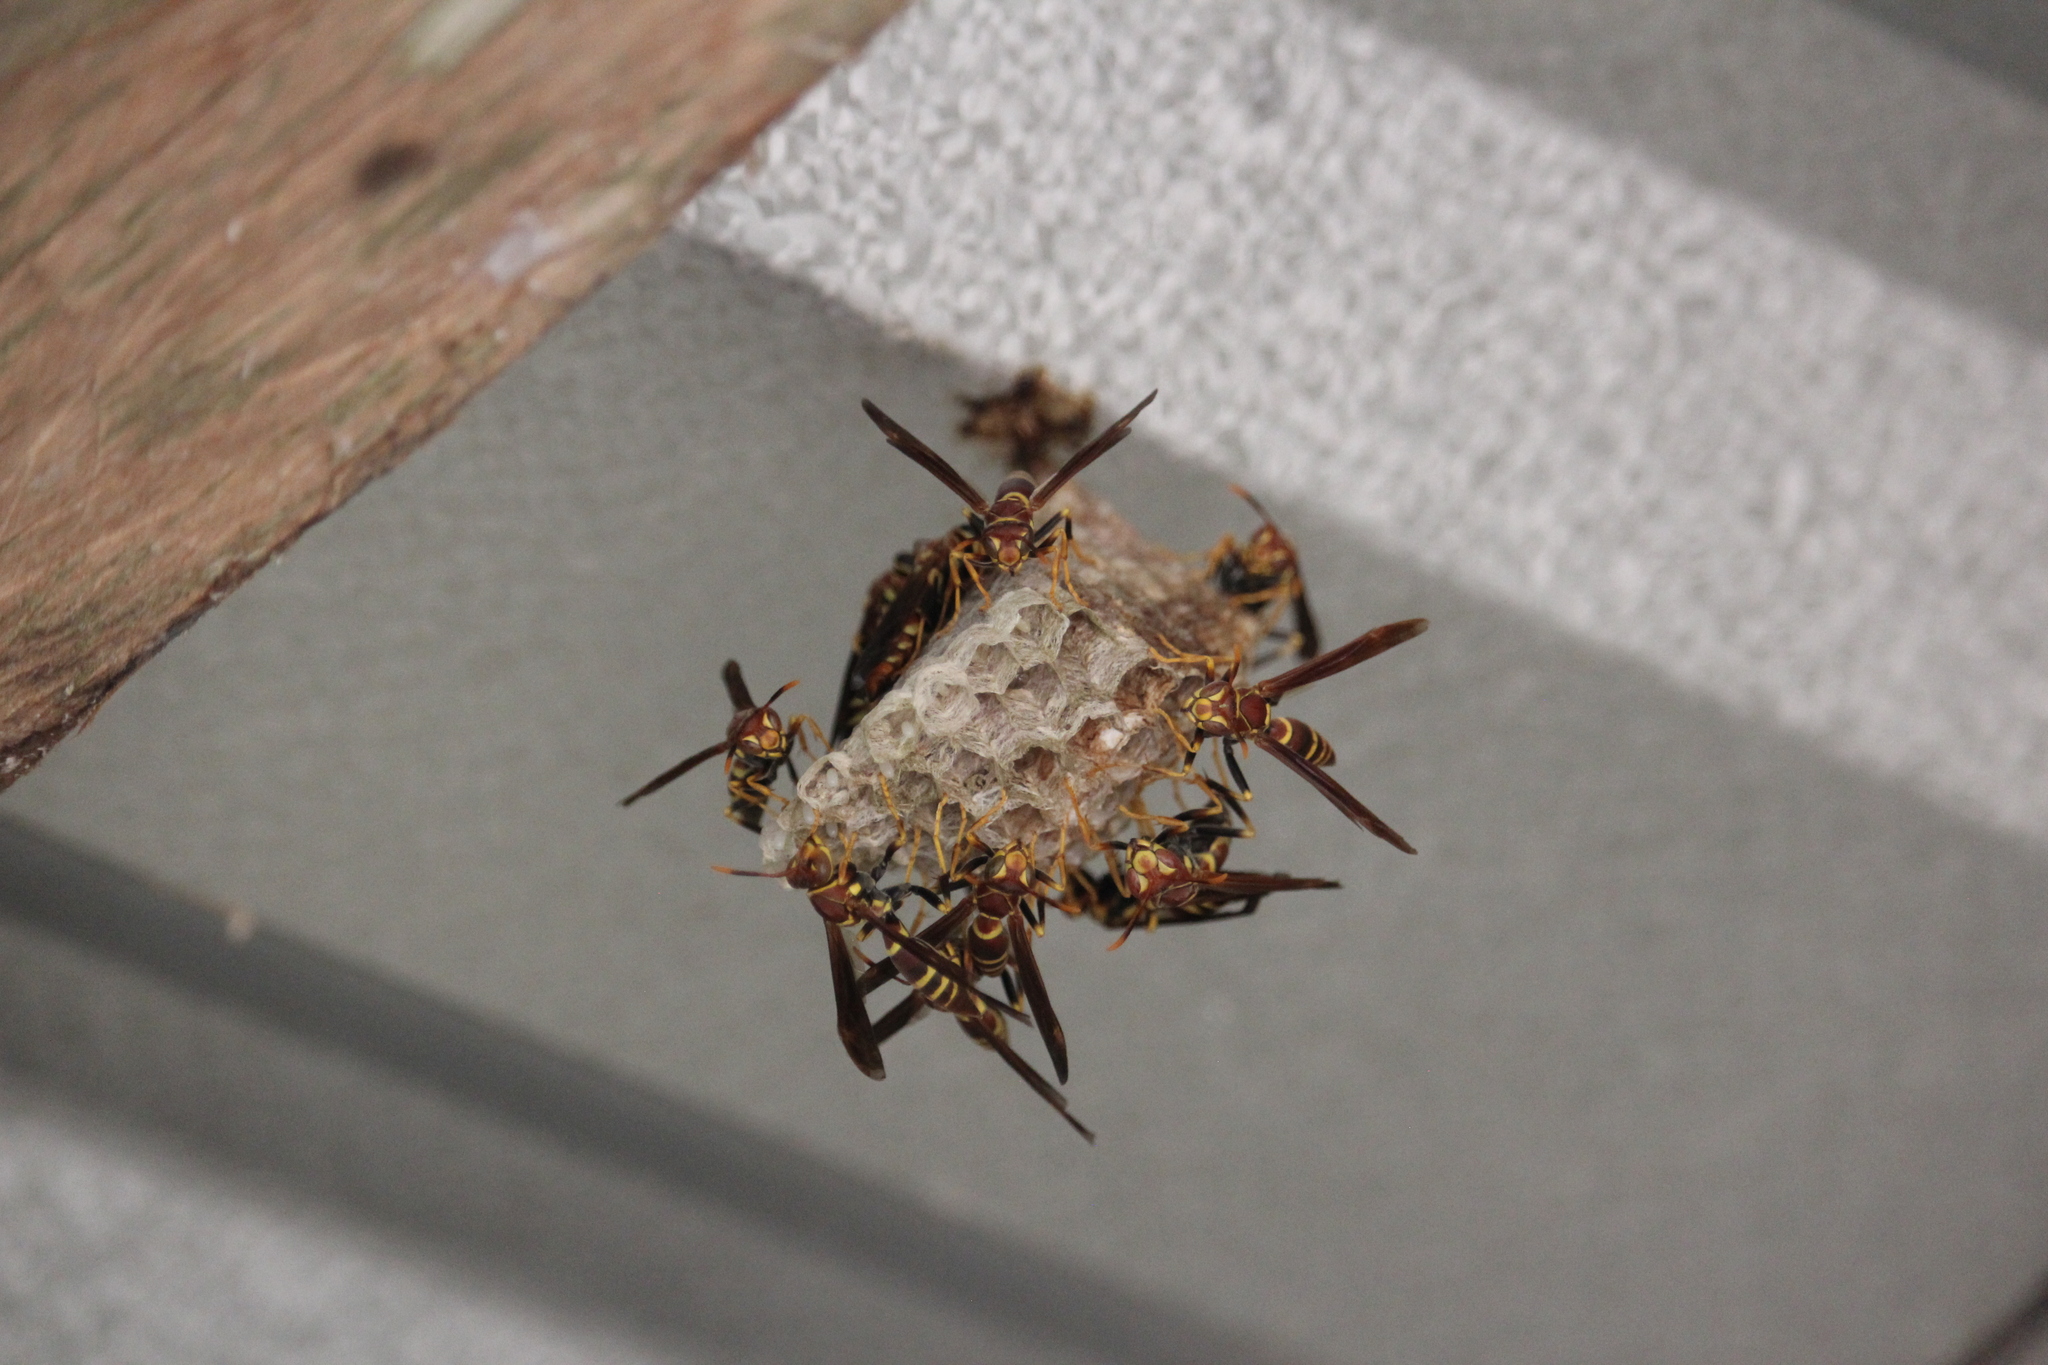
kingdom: Animalia
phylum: Arthropoda
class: Insecta
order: Hymenoptera
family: Eumenidae
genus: Polistes
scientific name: Polistes instabilis
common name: Unstable paper wasp
